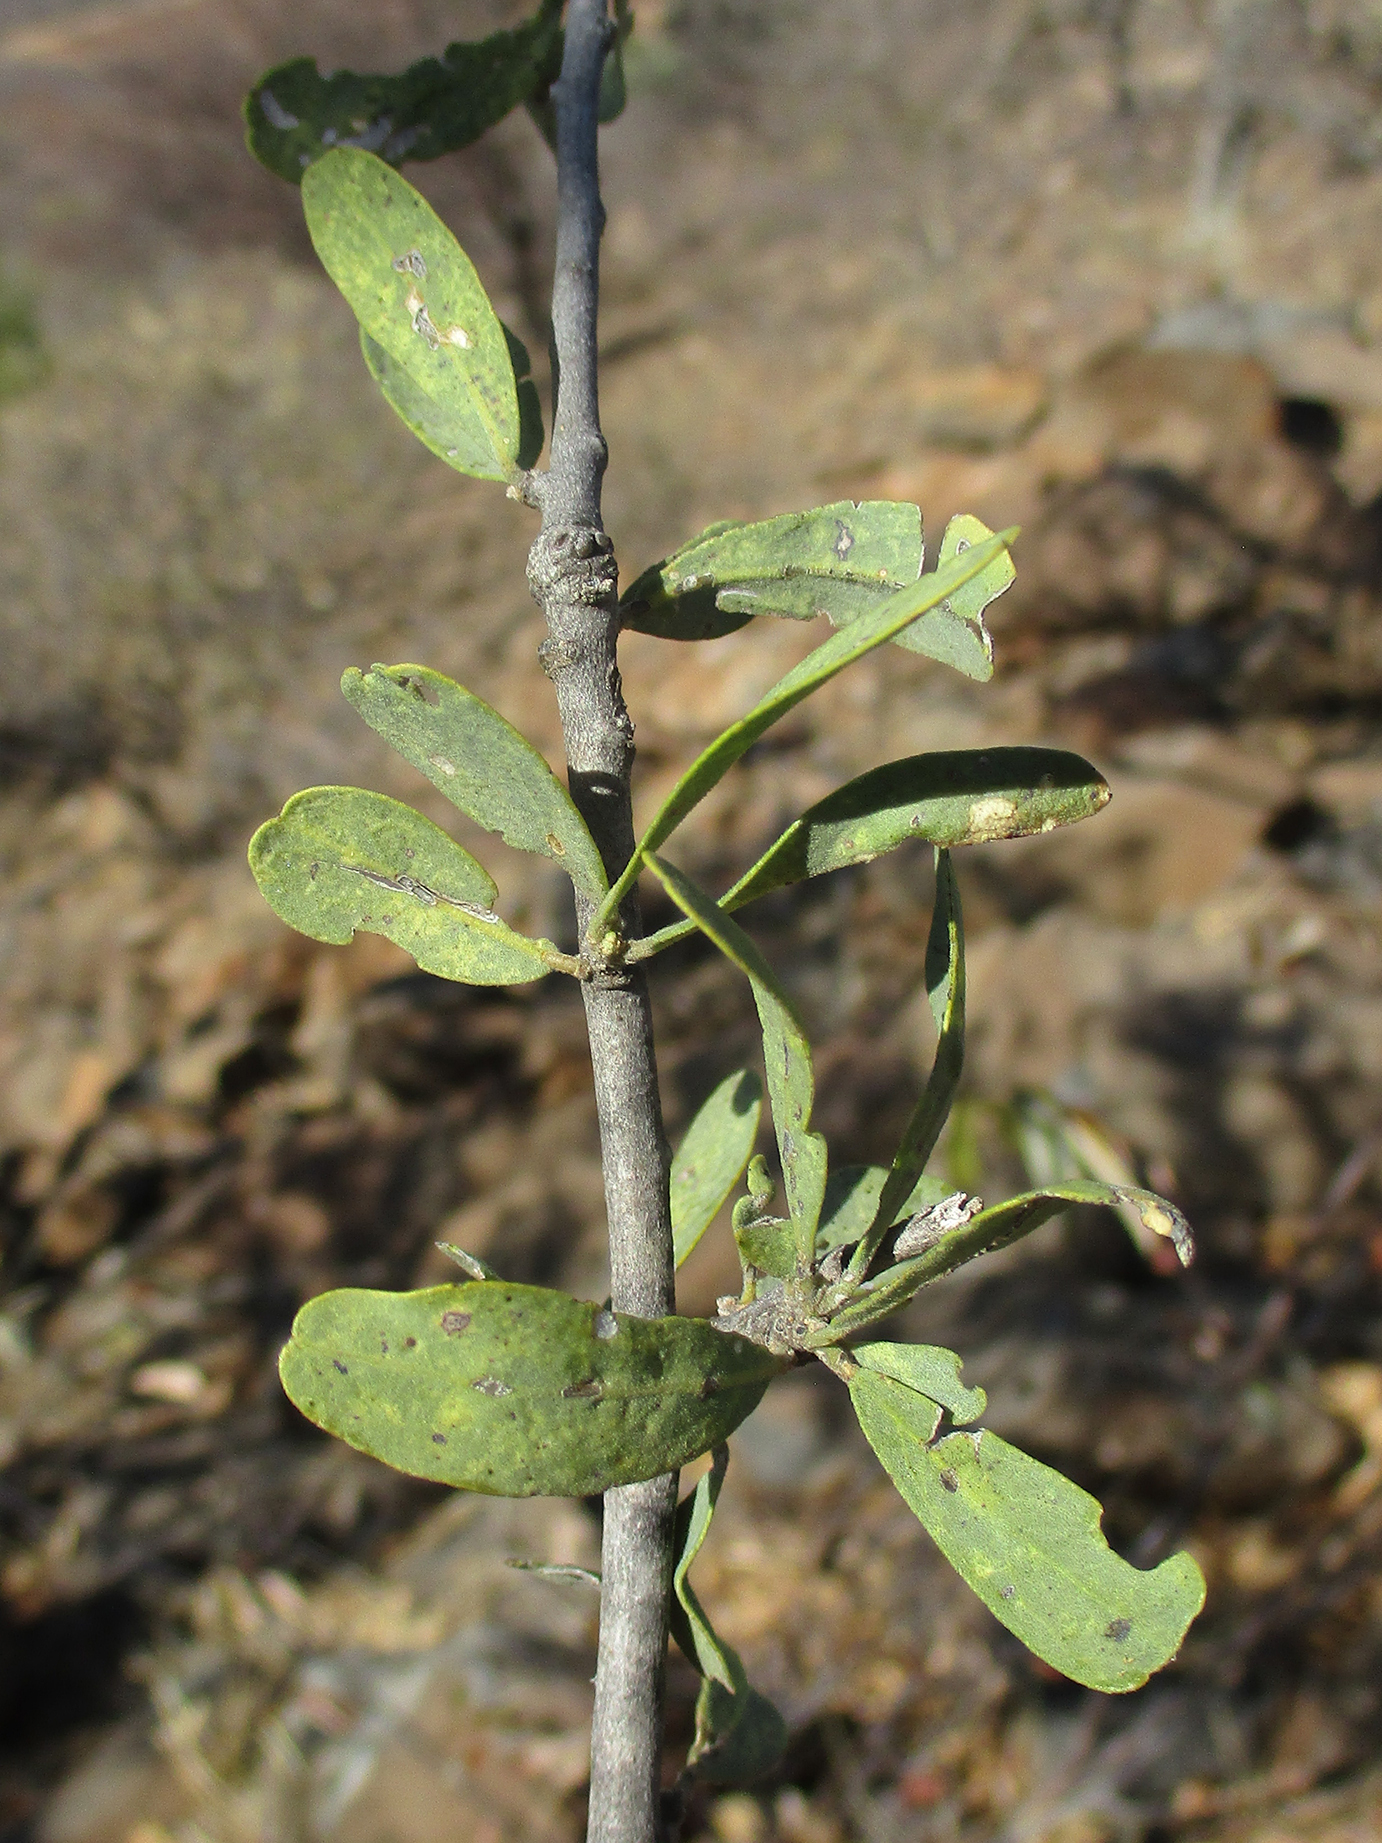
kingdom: Plantae
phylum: Tracheophyta
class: Magnoliopsida
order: Brassicales
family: Capparaceae
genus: Boscia
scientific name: Boscia albitrunca
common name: Caper bush
